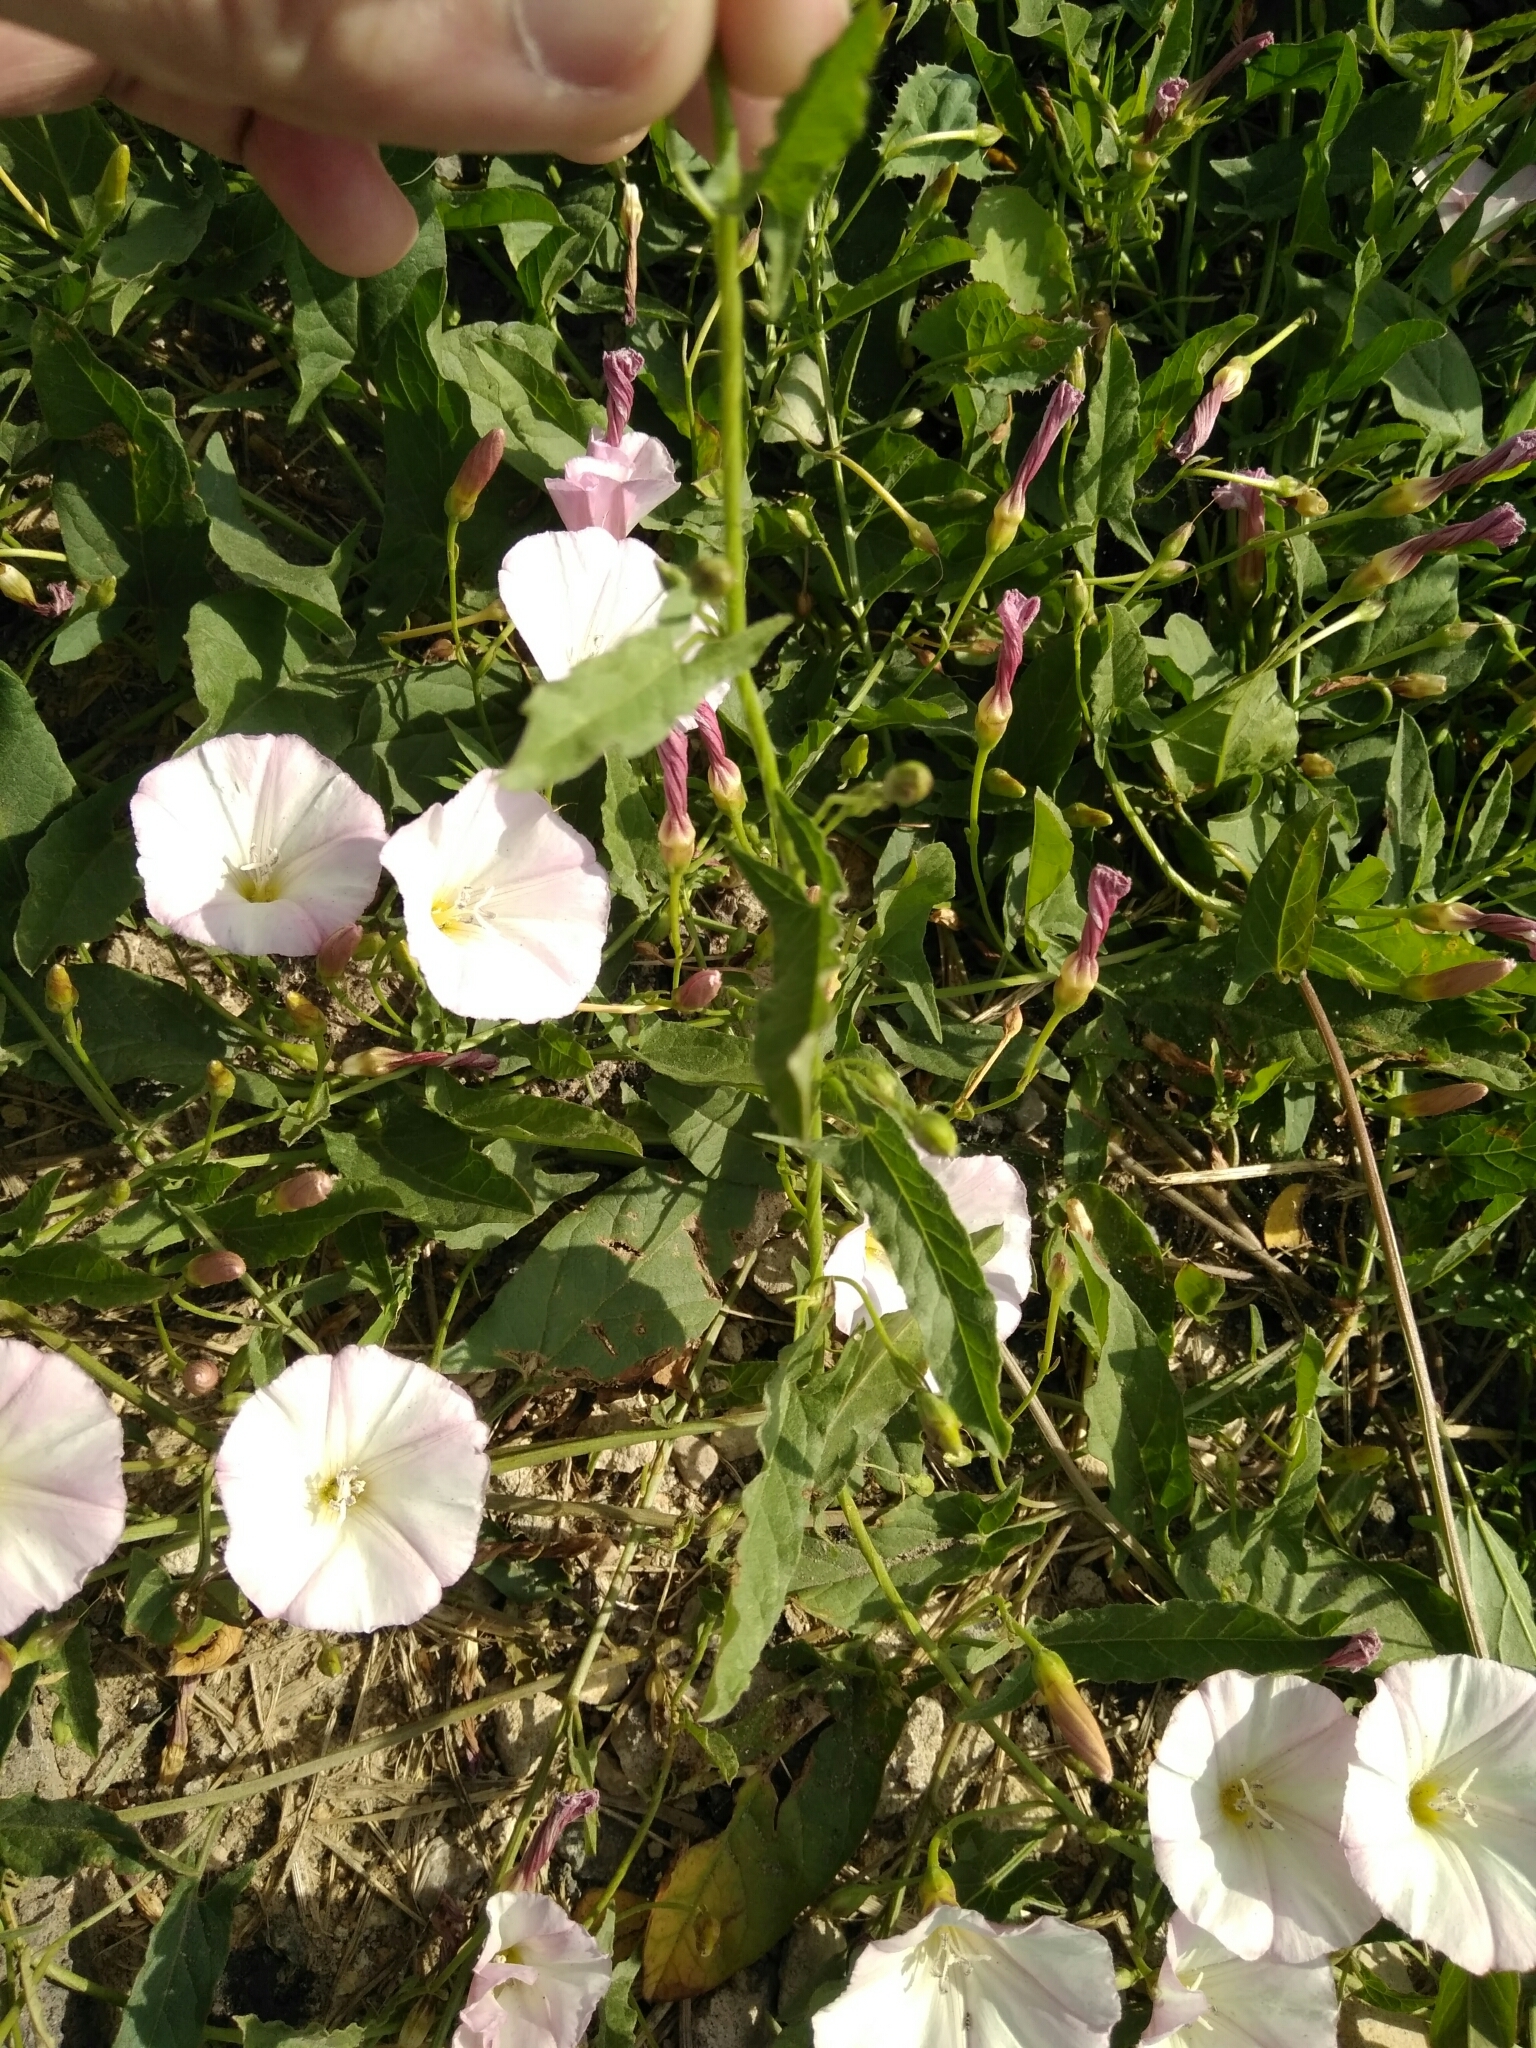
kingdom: Plantae
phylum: Tracheophyta
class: Magnoliopsida
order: Solanales
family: Convolvulaceae
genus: Convolvulus
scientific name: Convolvulus arvensis
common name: Field bindweed
